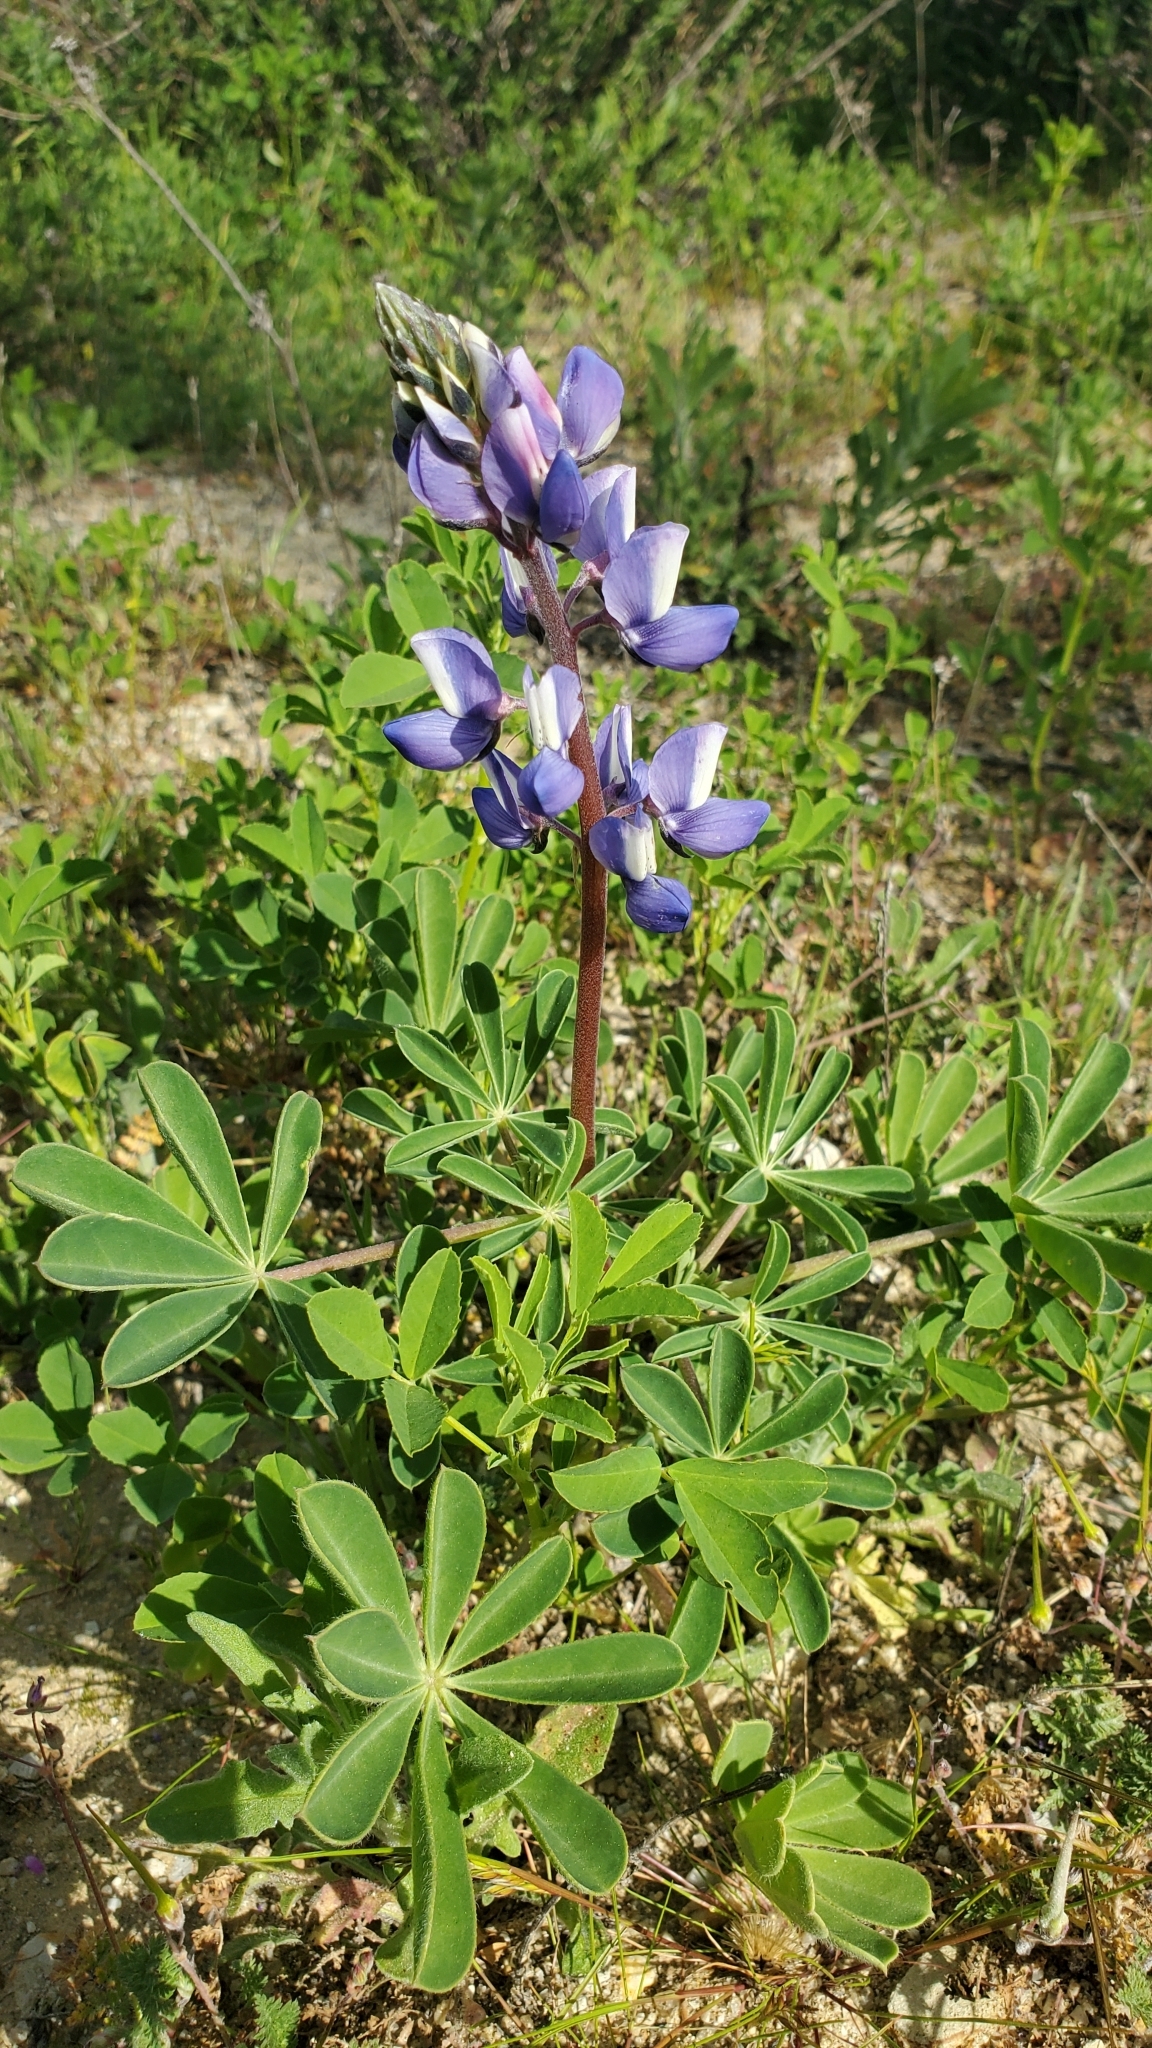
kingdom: Plantae
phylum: Tracheophyta
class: Magnoliopsida
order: Fabales
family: Fabaceae
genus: Lupinus
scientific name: Lupinus succulentus
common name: Arroyo lupine
